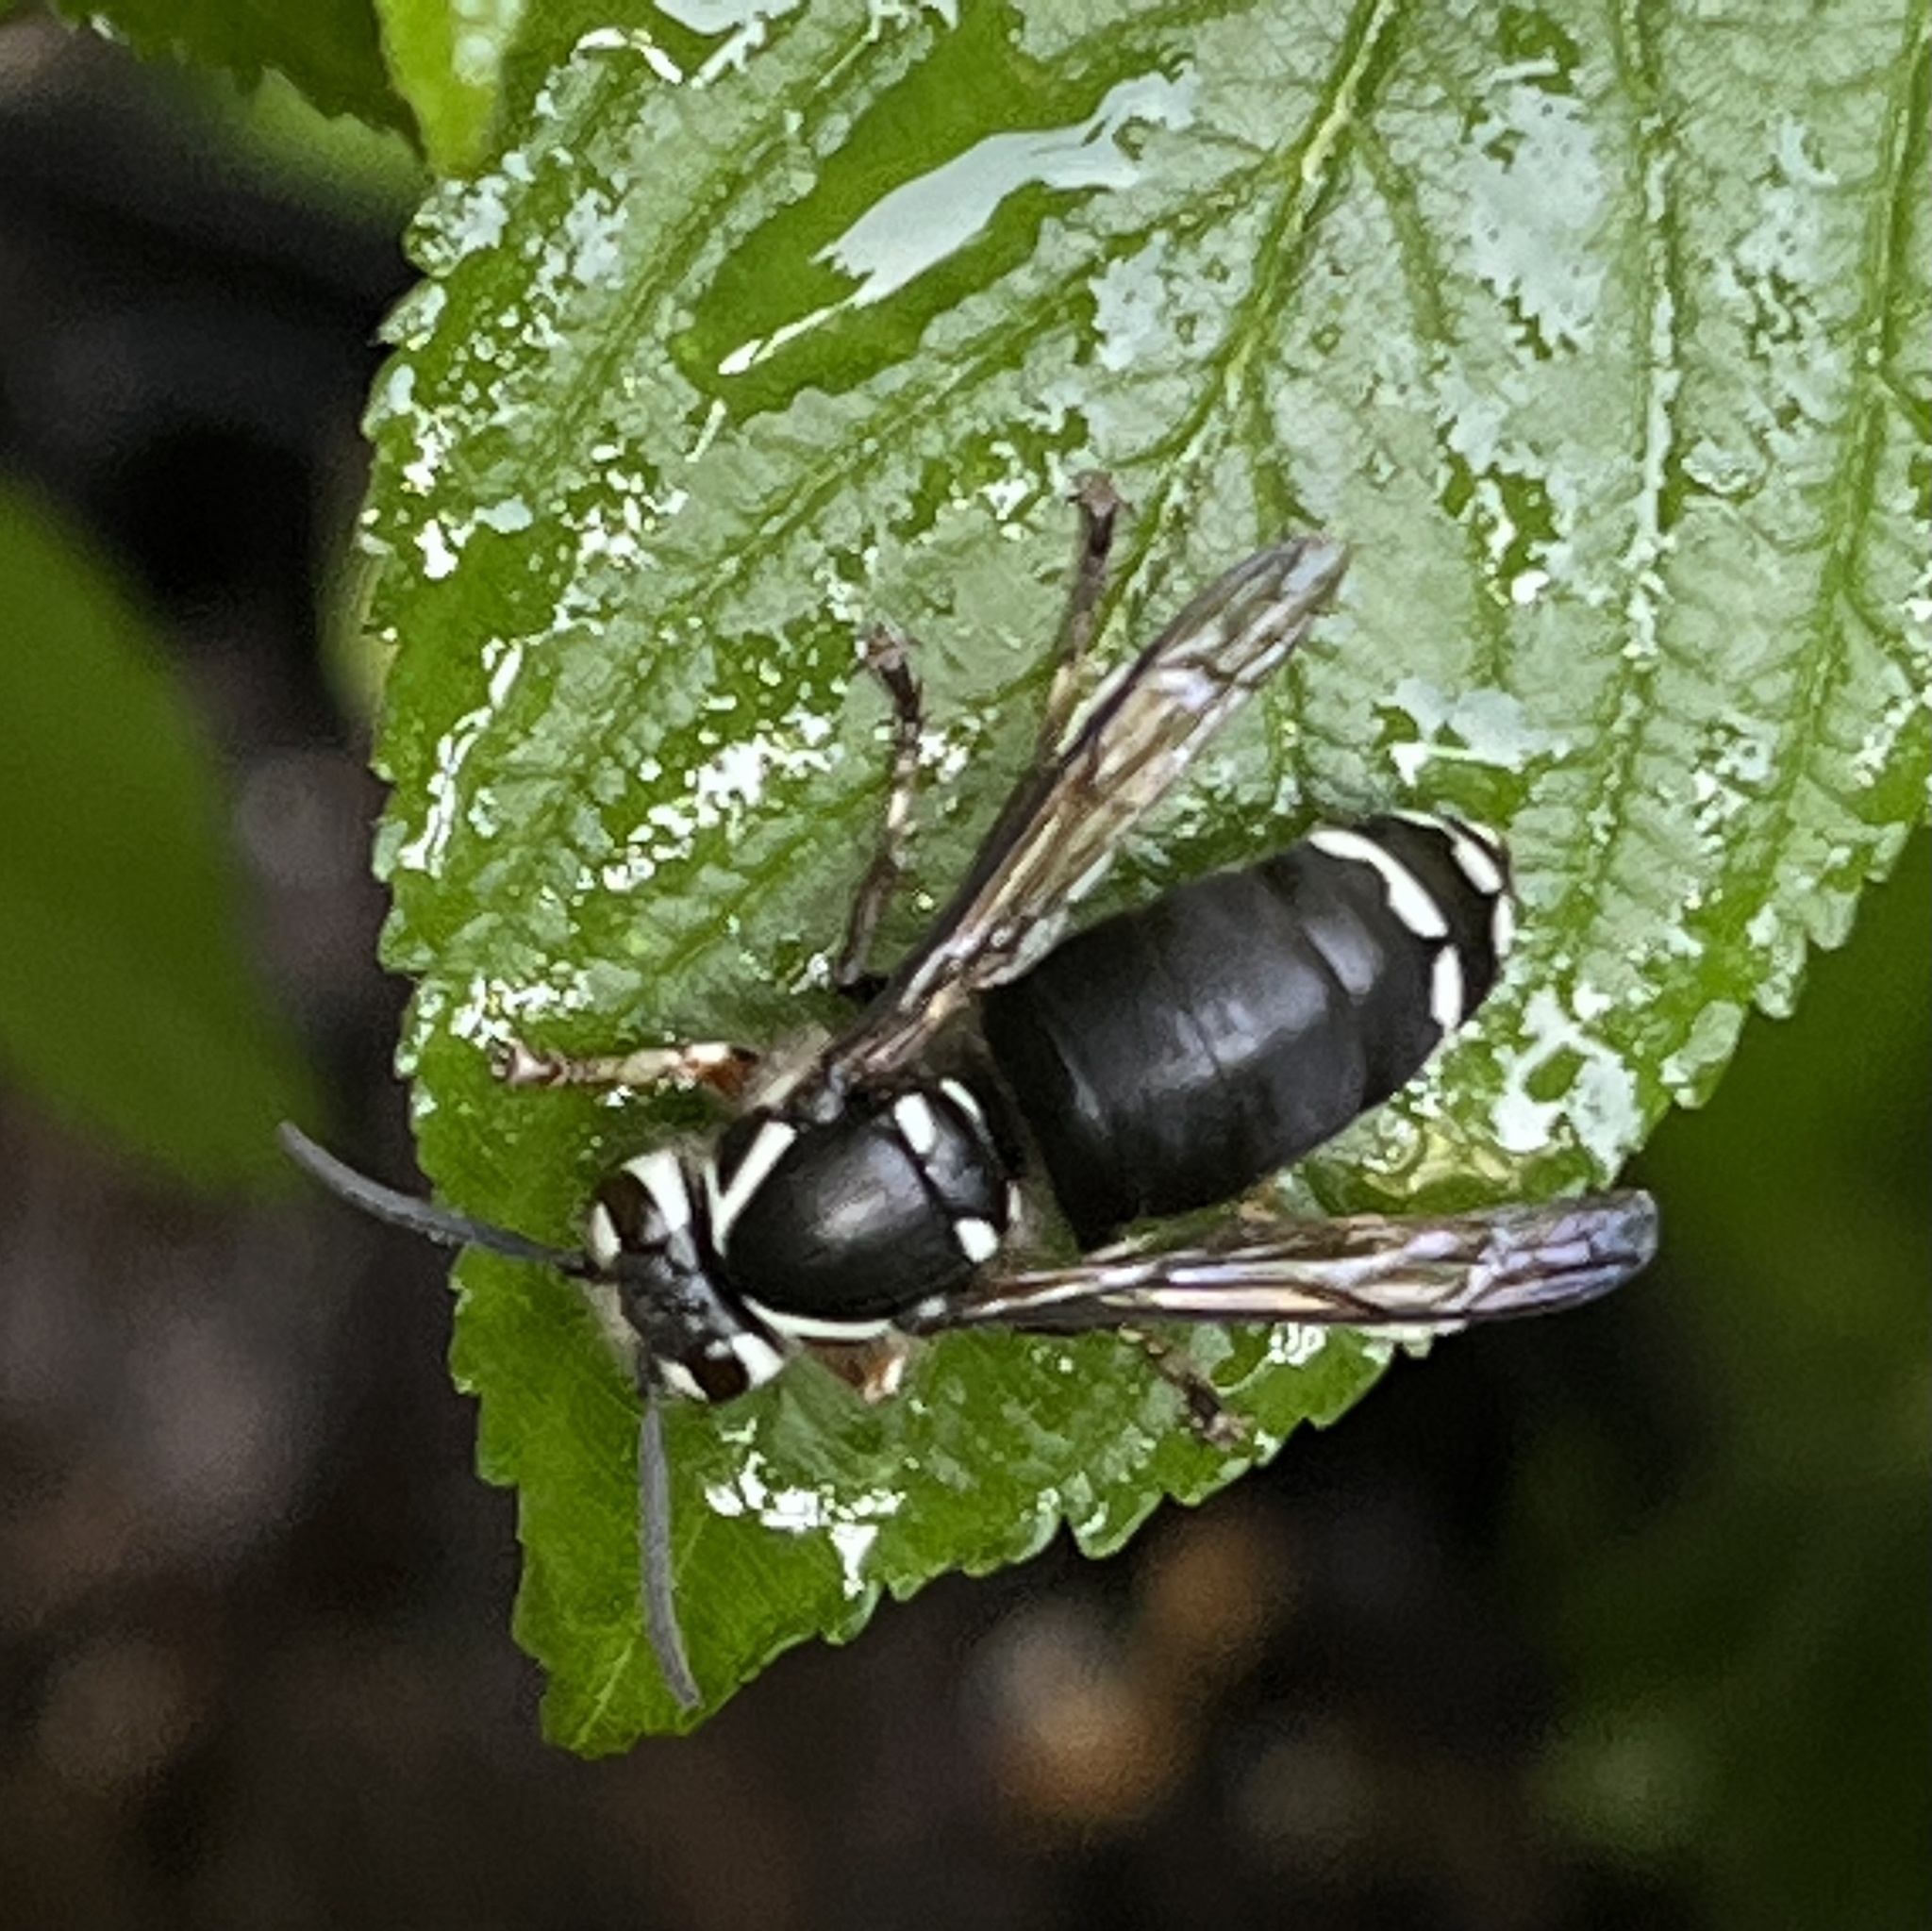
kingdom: Animalia
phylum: Arthropoda
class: Insecta
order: Hymenoptera
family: Vespidae
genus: Dolichovespula
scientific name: Dolichovespula maculata
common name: Bald-faced hornet
